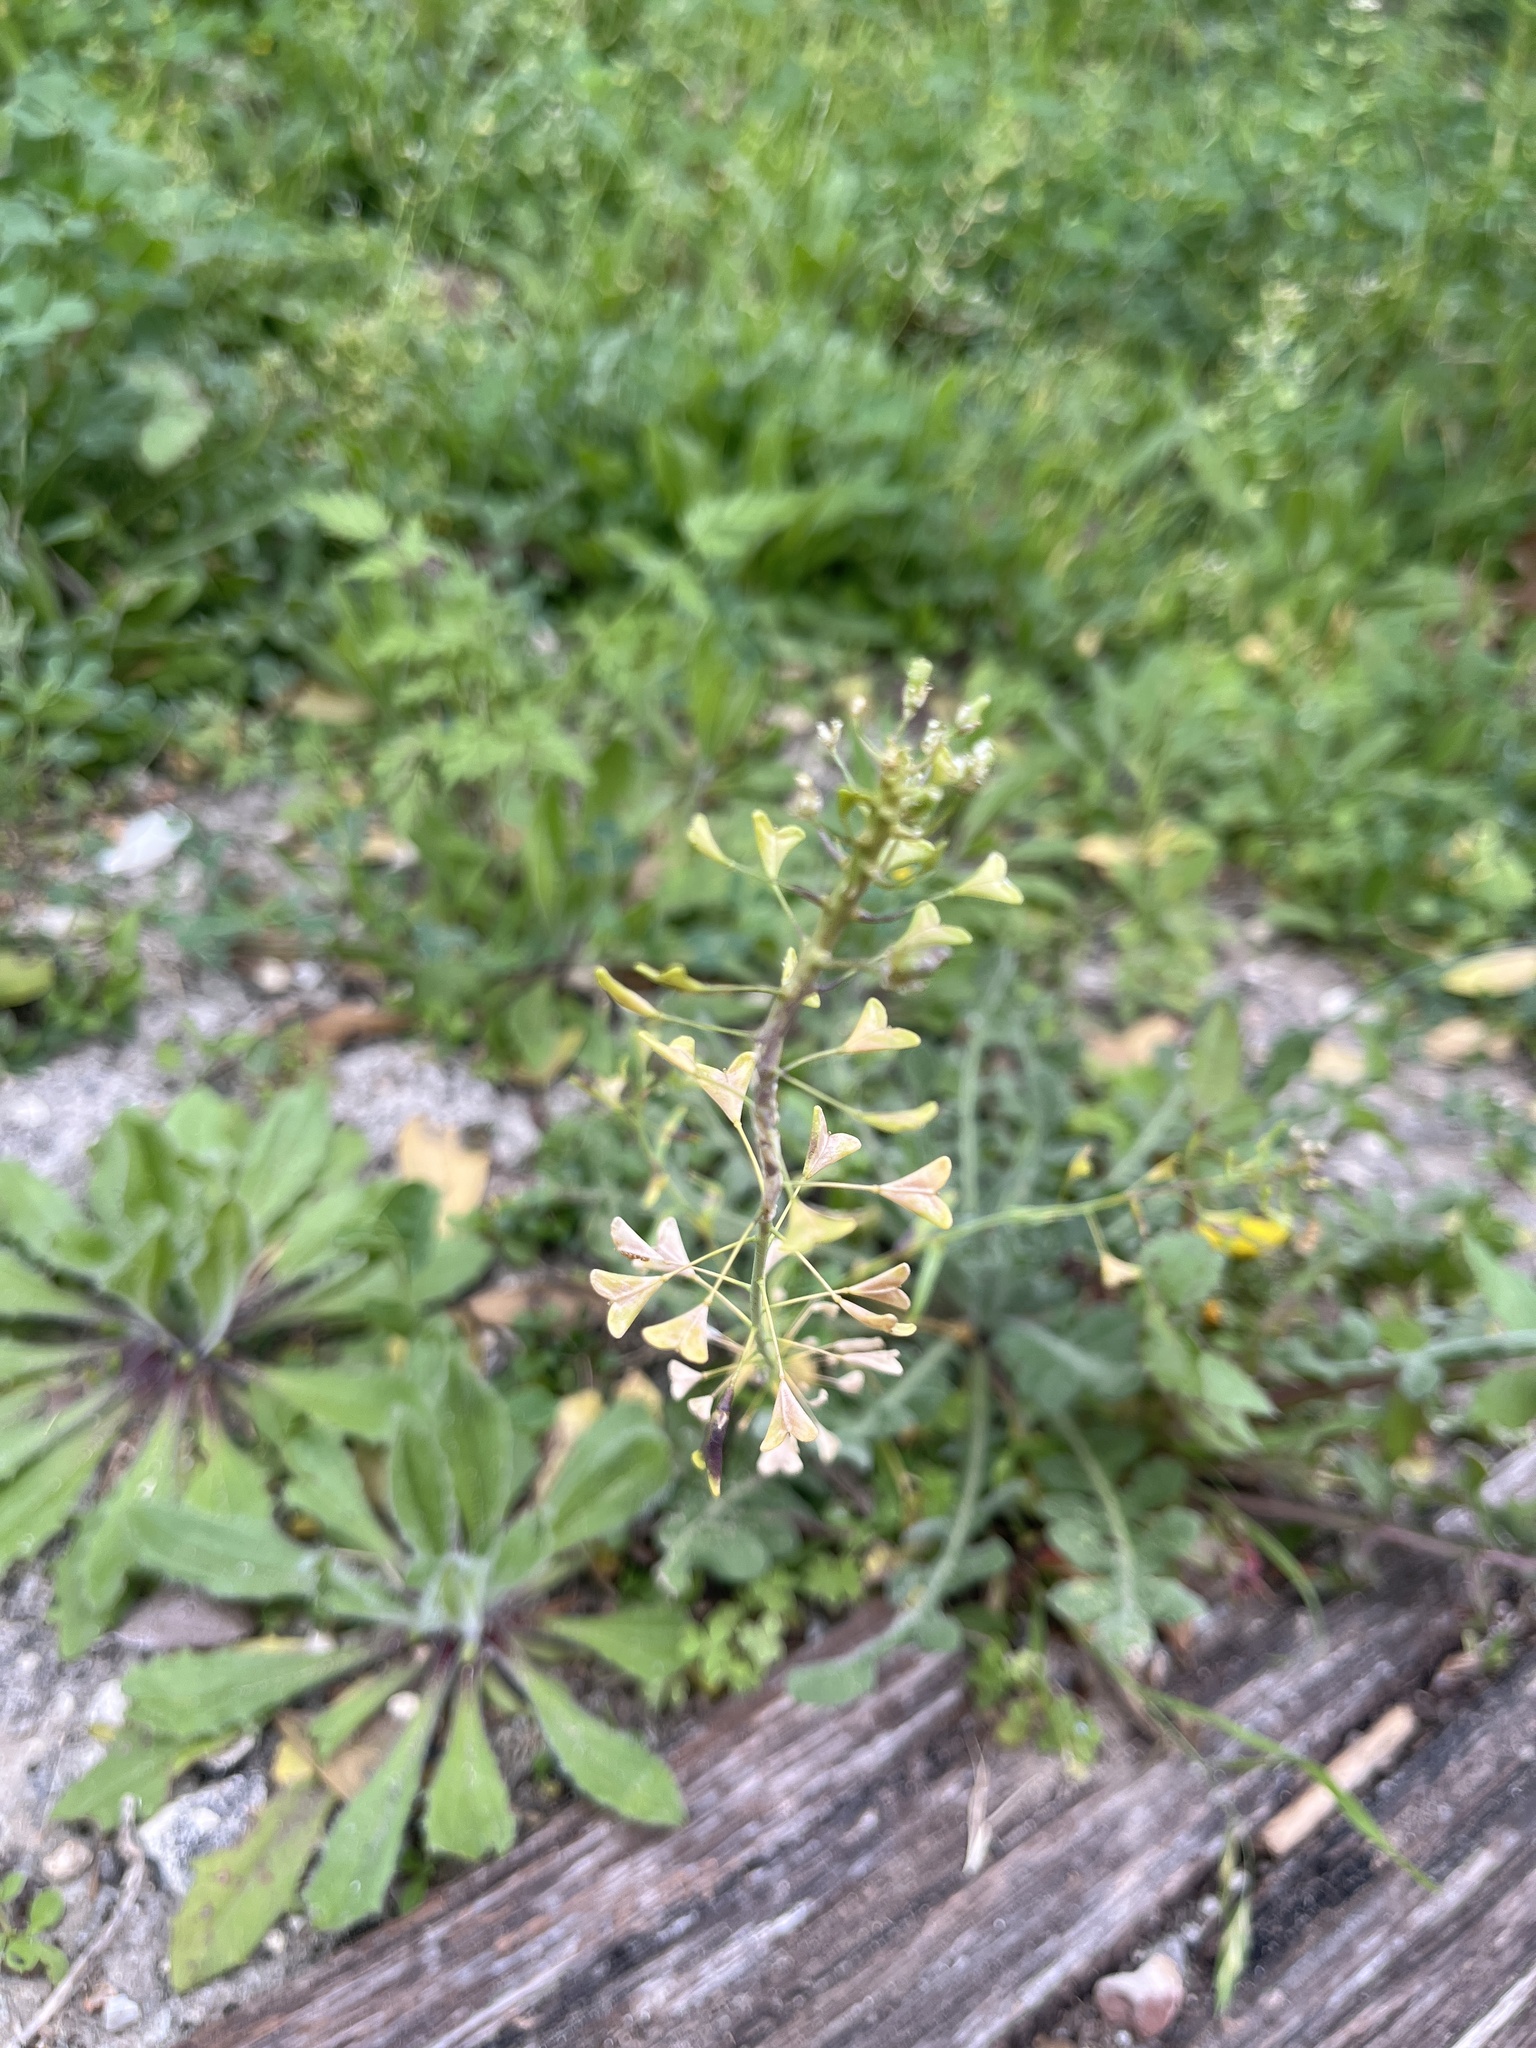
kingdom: Plantae
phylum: Tracheophyta
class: Magnoliopsida
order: Brassicales
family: Brassicaceae
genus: Capsella
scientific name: Capsella bursa-pastoris
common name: Shepherd's purse
